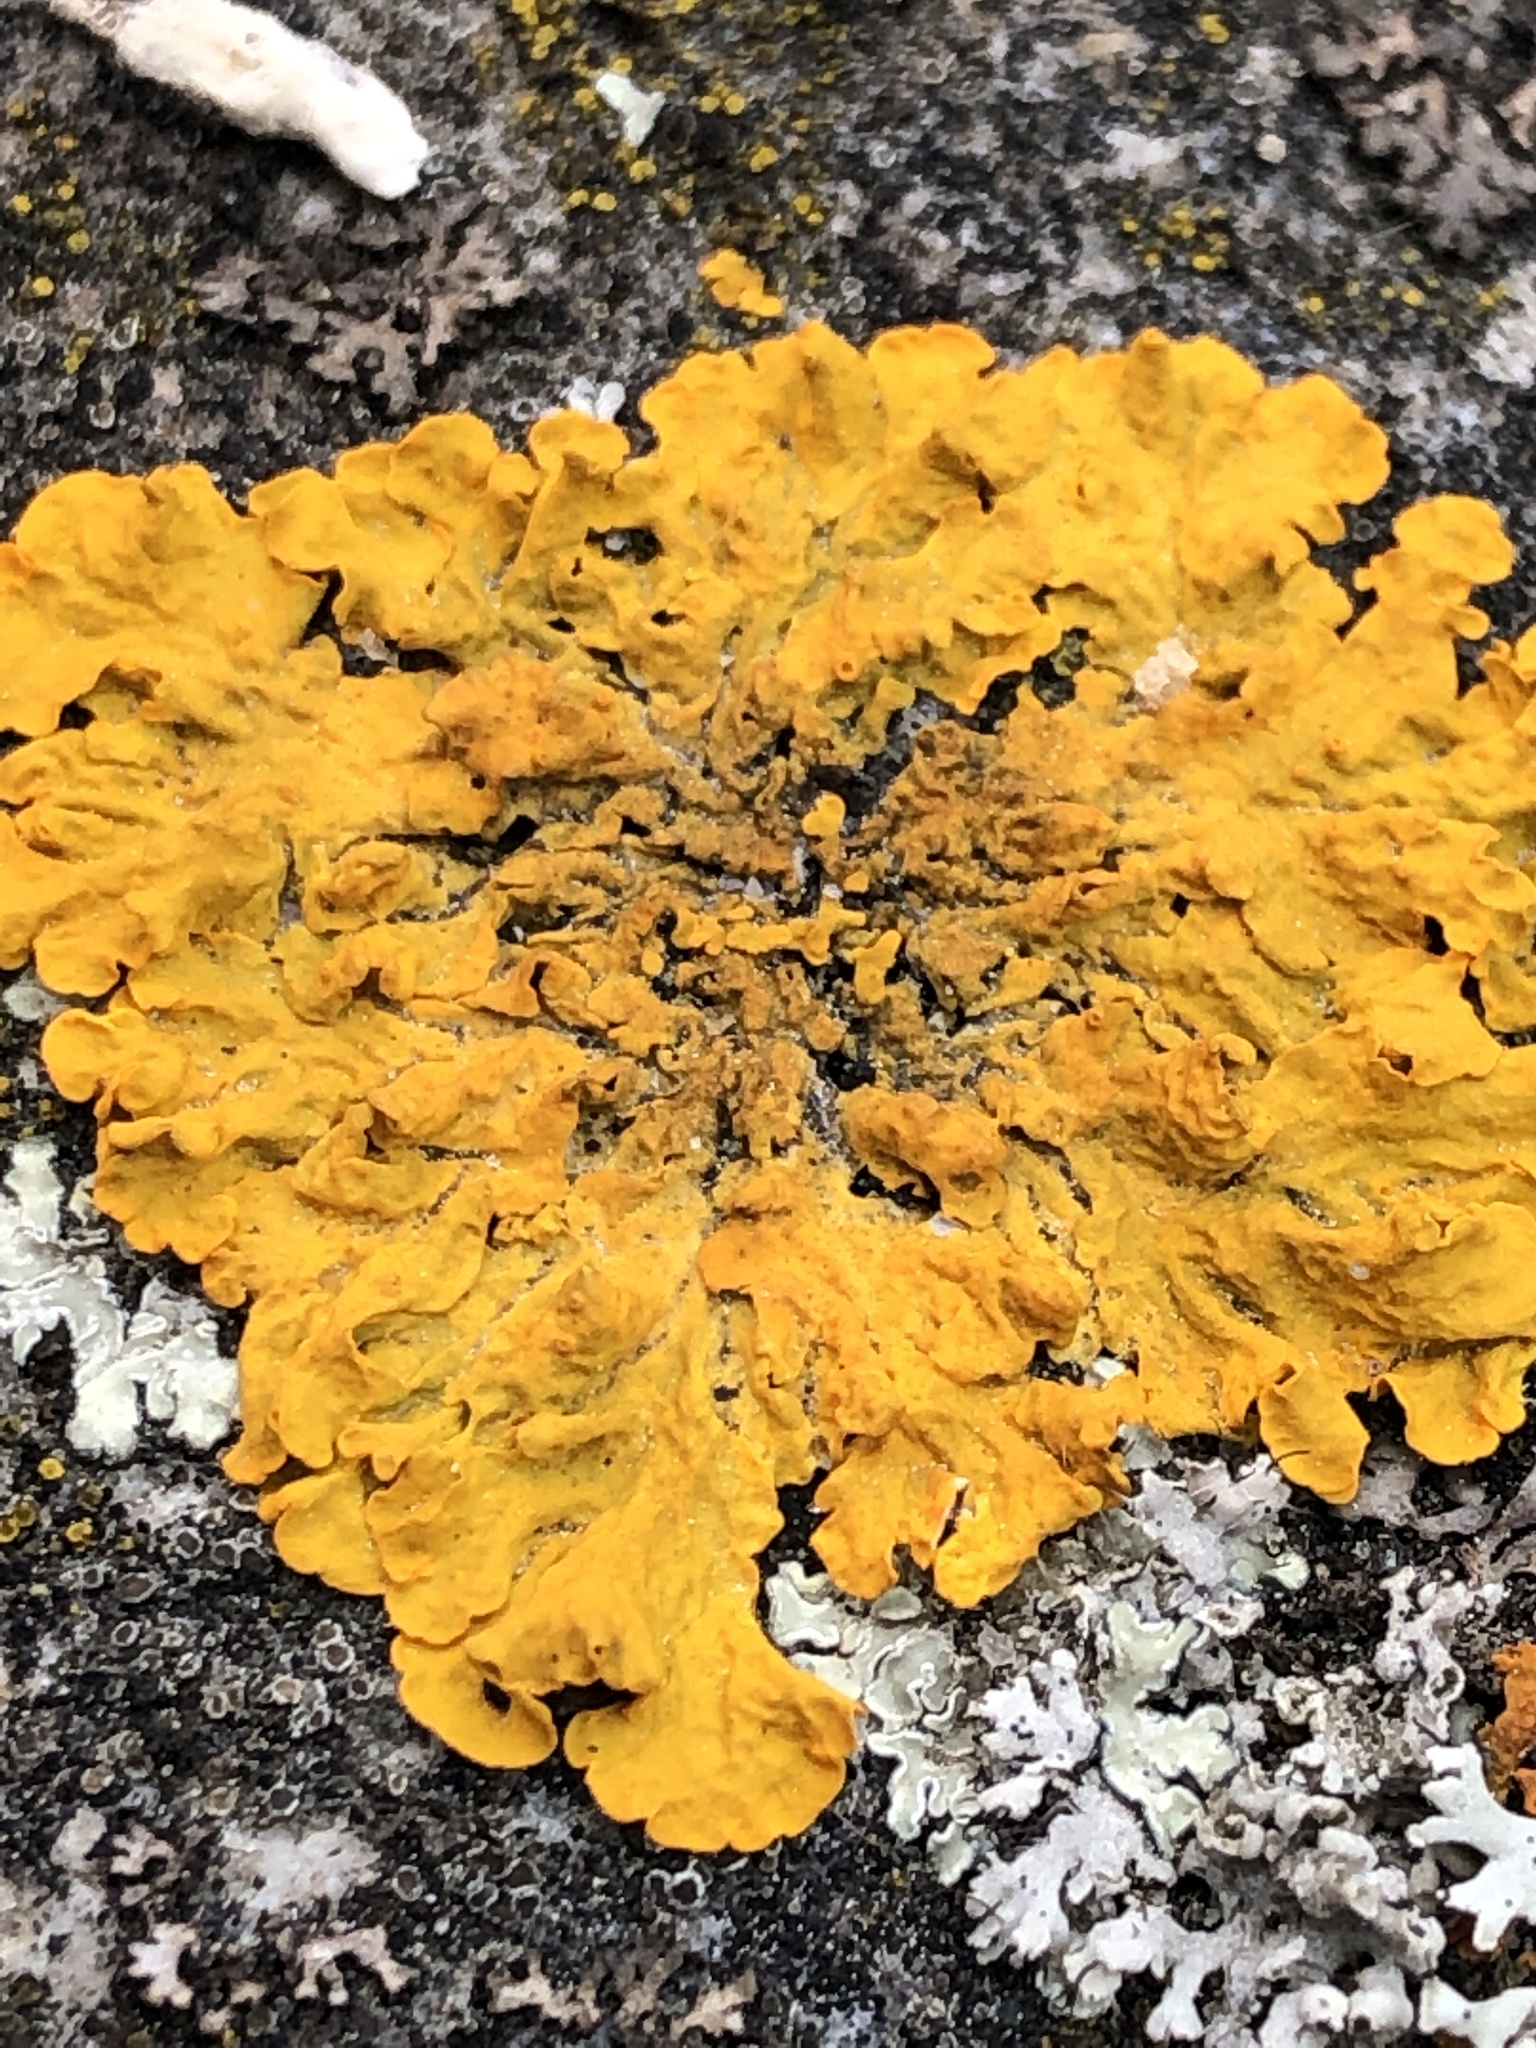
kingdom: Fungi
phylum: Ascomycota
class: Lecanoromycetes
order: Teloschistales
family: Teloschistaceae
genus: Xanthoria
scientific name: Xanthoria parietina
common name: Common orange lichen
